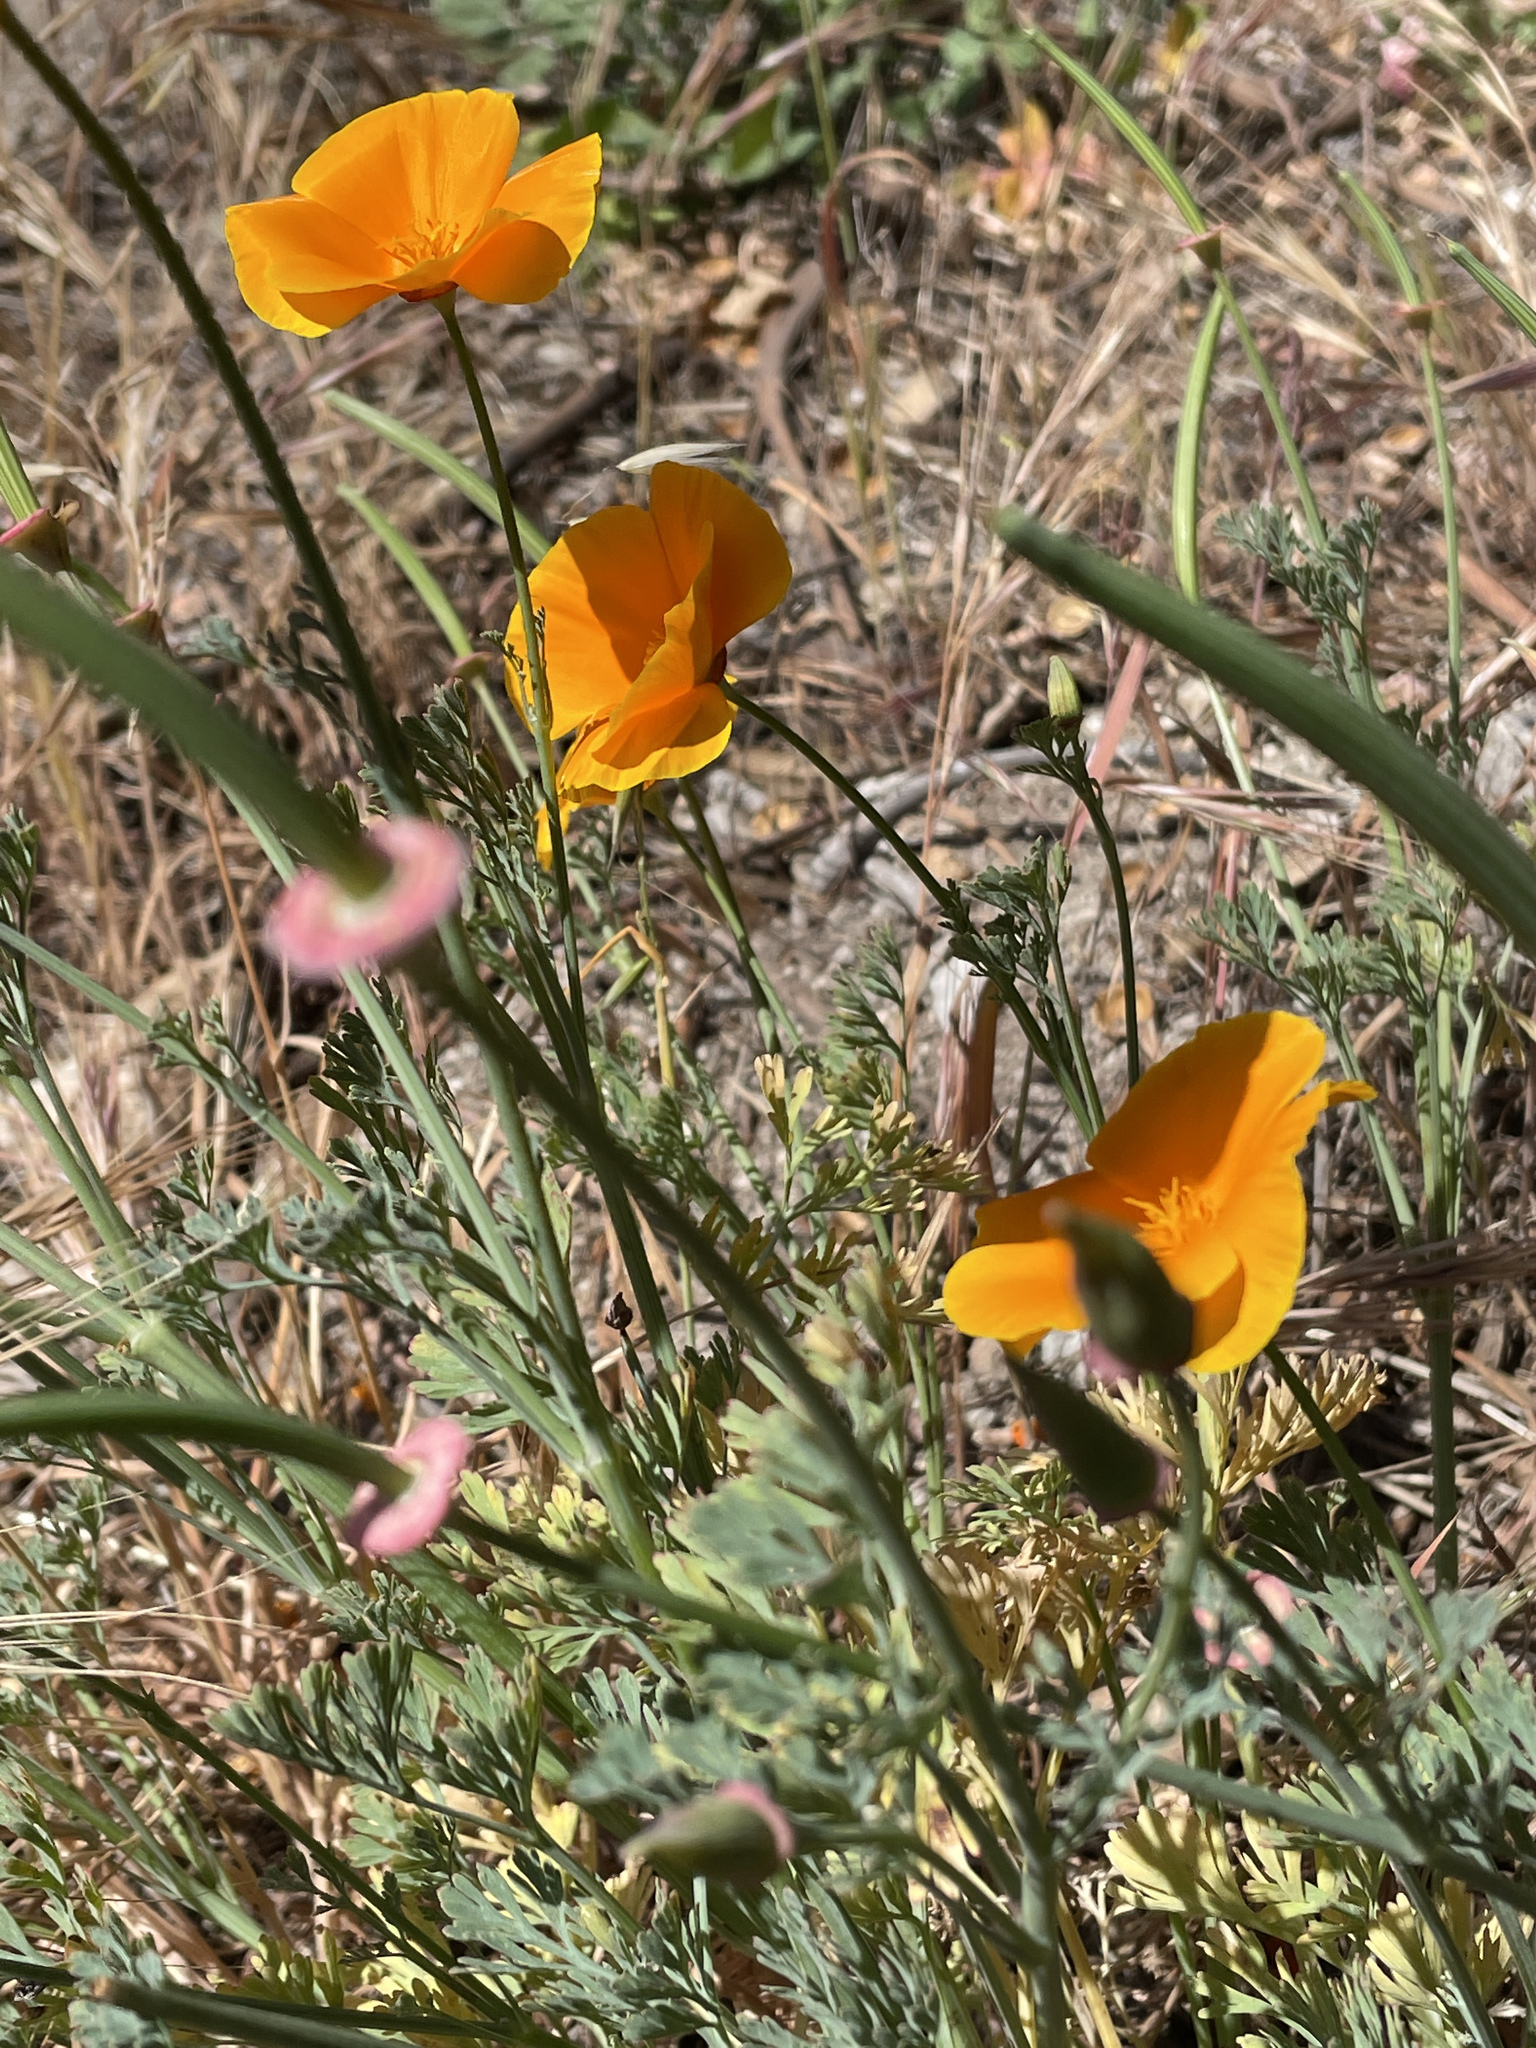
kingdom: Plantae
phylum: Tracheophyta
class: Magnoliopsida
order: Ranunculales
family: Papaveraceae
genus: Eschscholzia
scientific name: Eschscholzia californica
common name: California poppy
